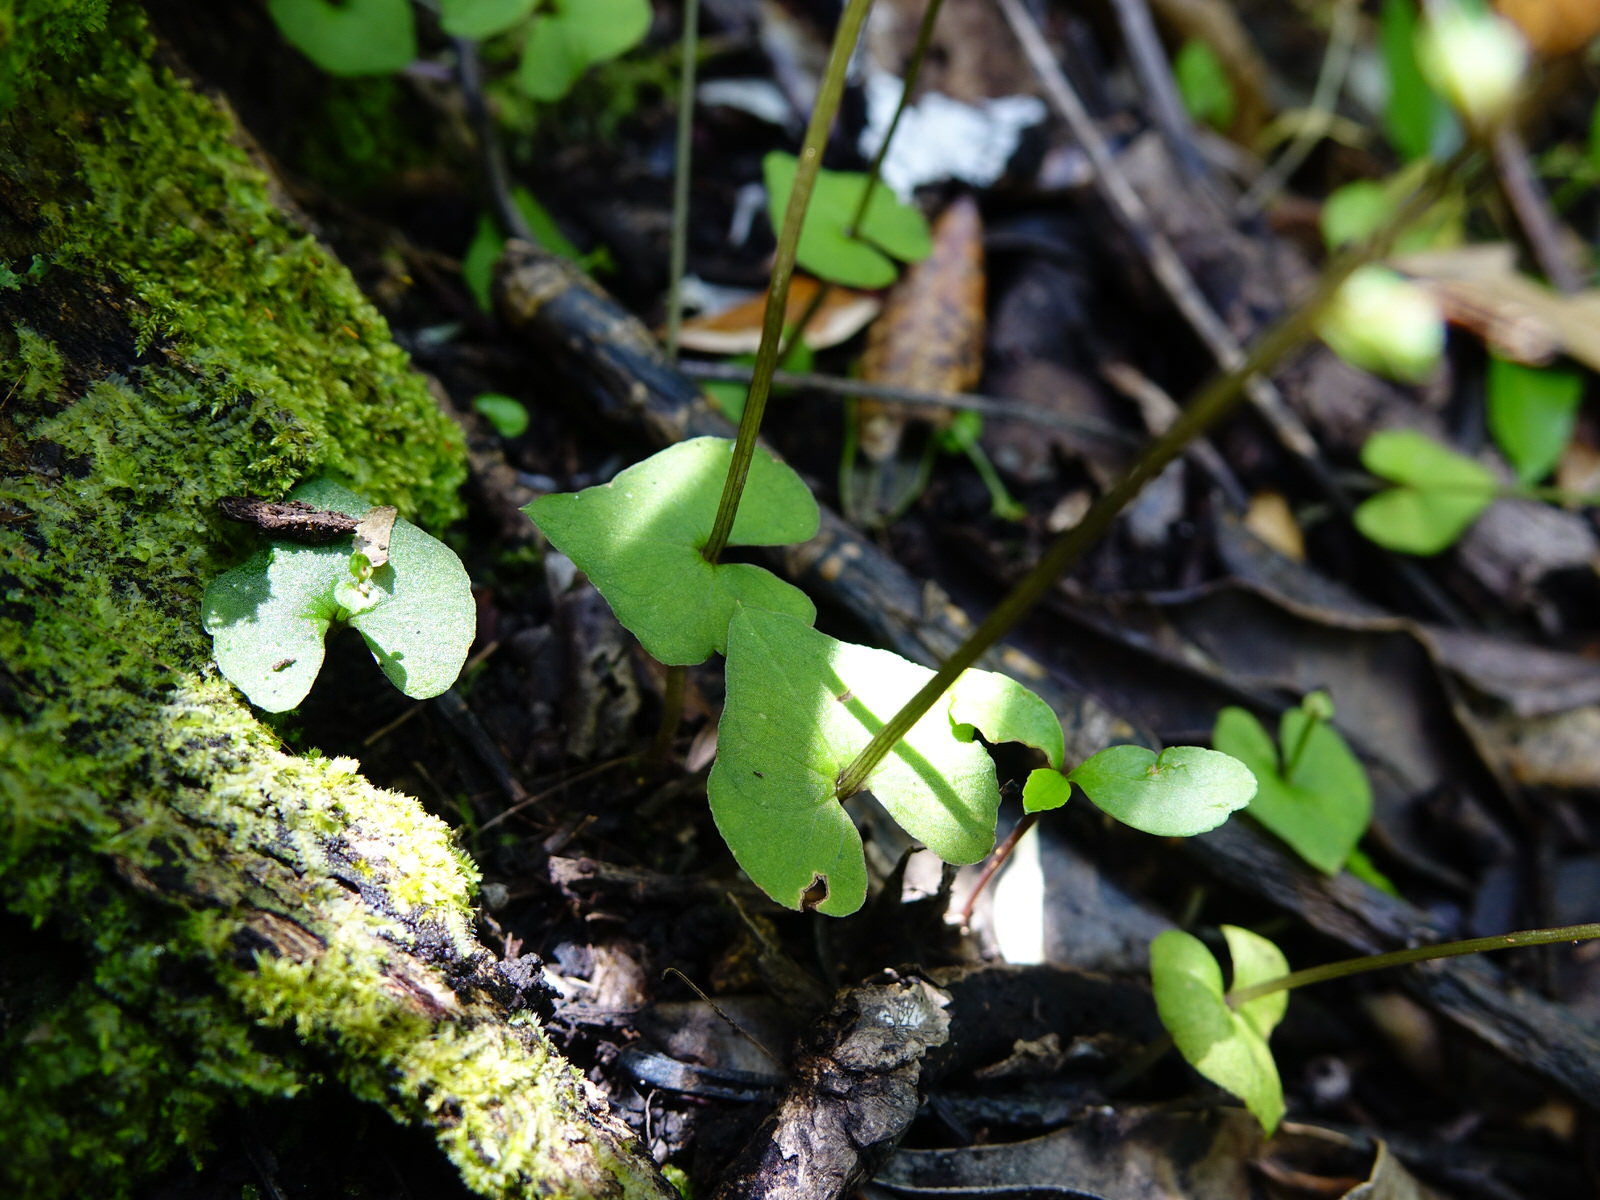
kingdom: Plantae
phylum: Tracheophyta
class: Liliopsida
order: Asparagales
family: Orchidaceae
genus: Acianthus
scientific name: Acianthus sinclairii
